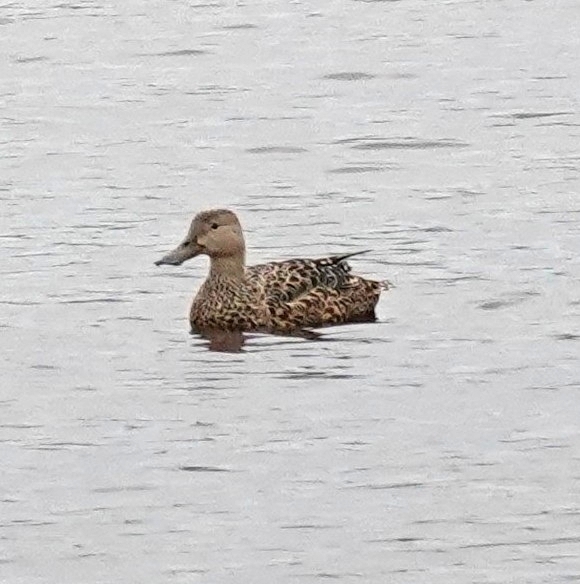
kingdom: Animalia
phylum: Chordata
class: Aves
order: Anseriformes
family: Anatidae
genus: Spatula
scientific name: Spatula smithii
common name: Cape shoveler
